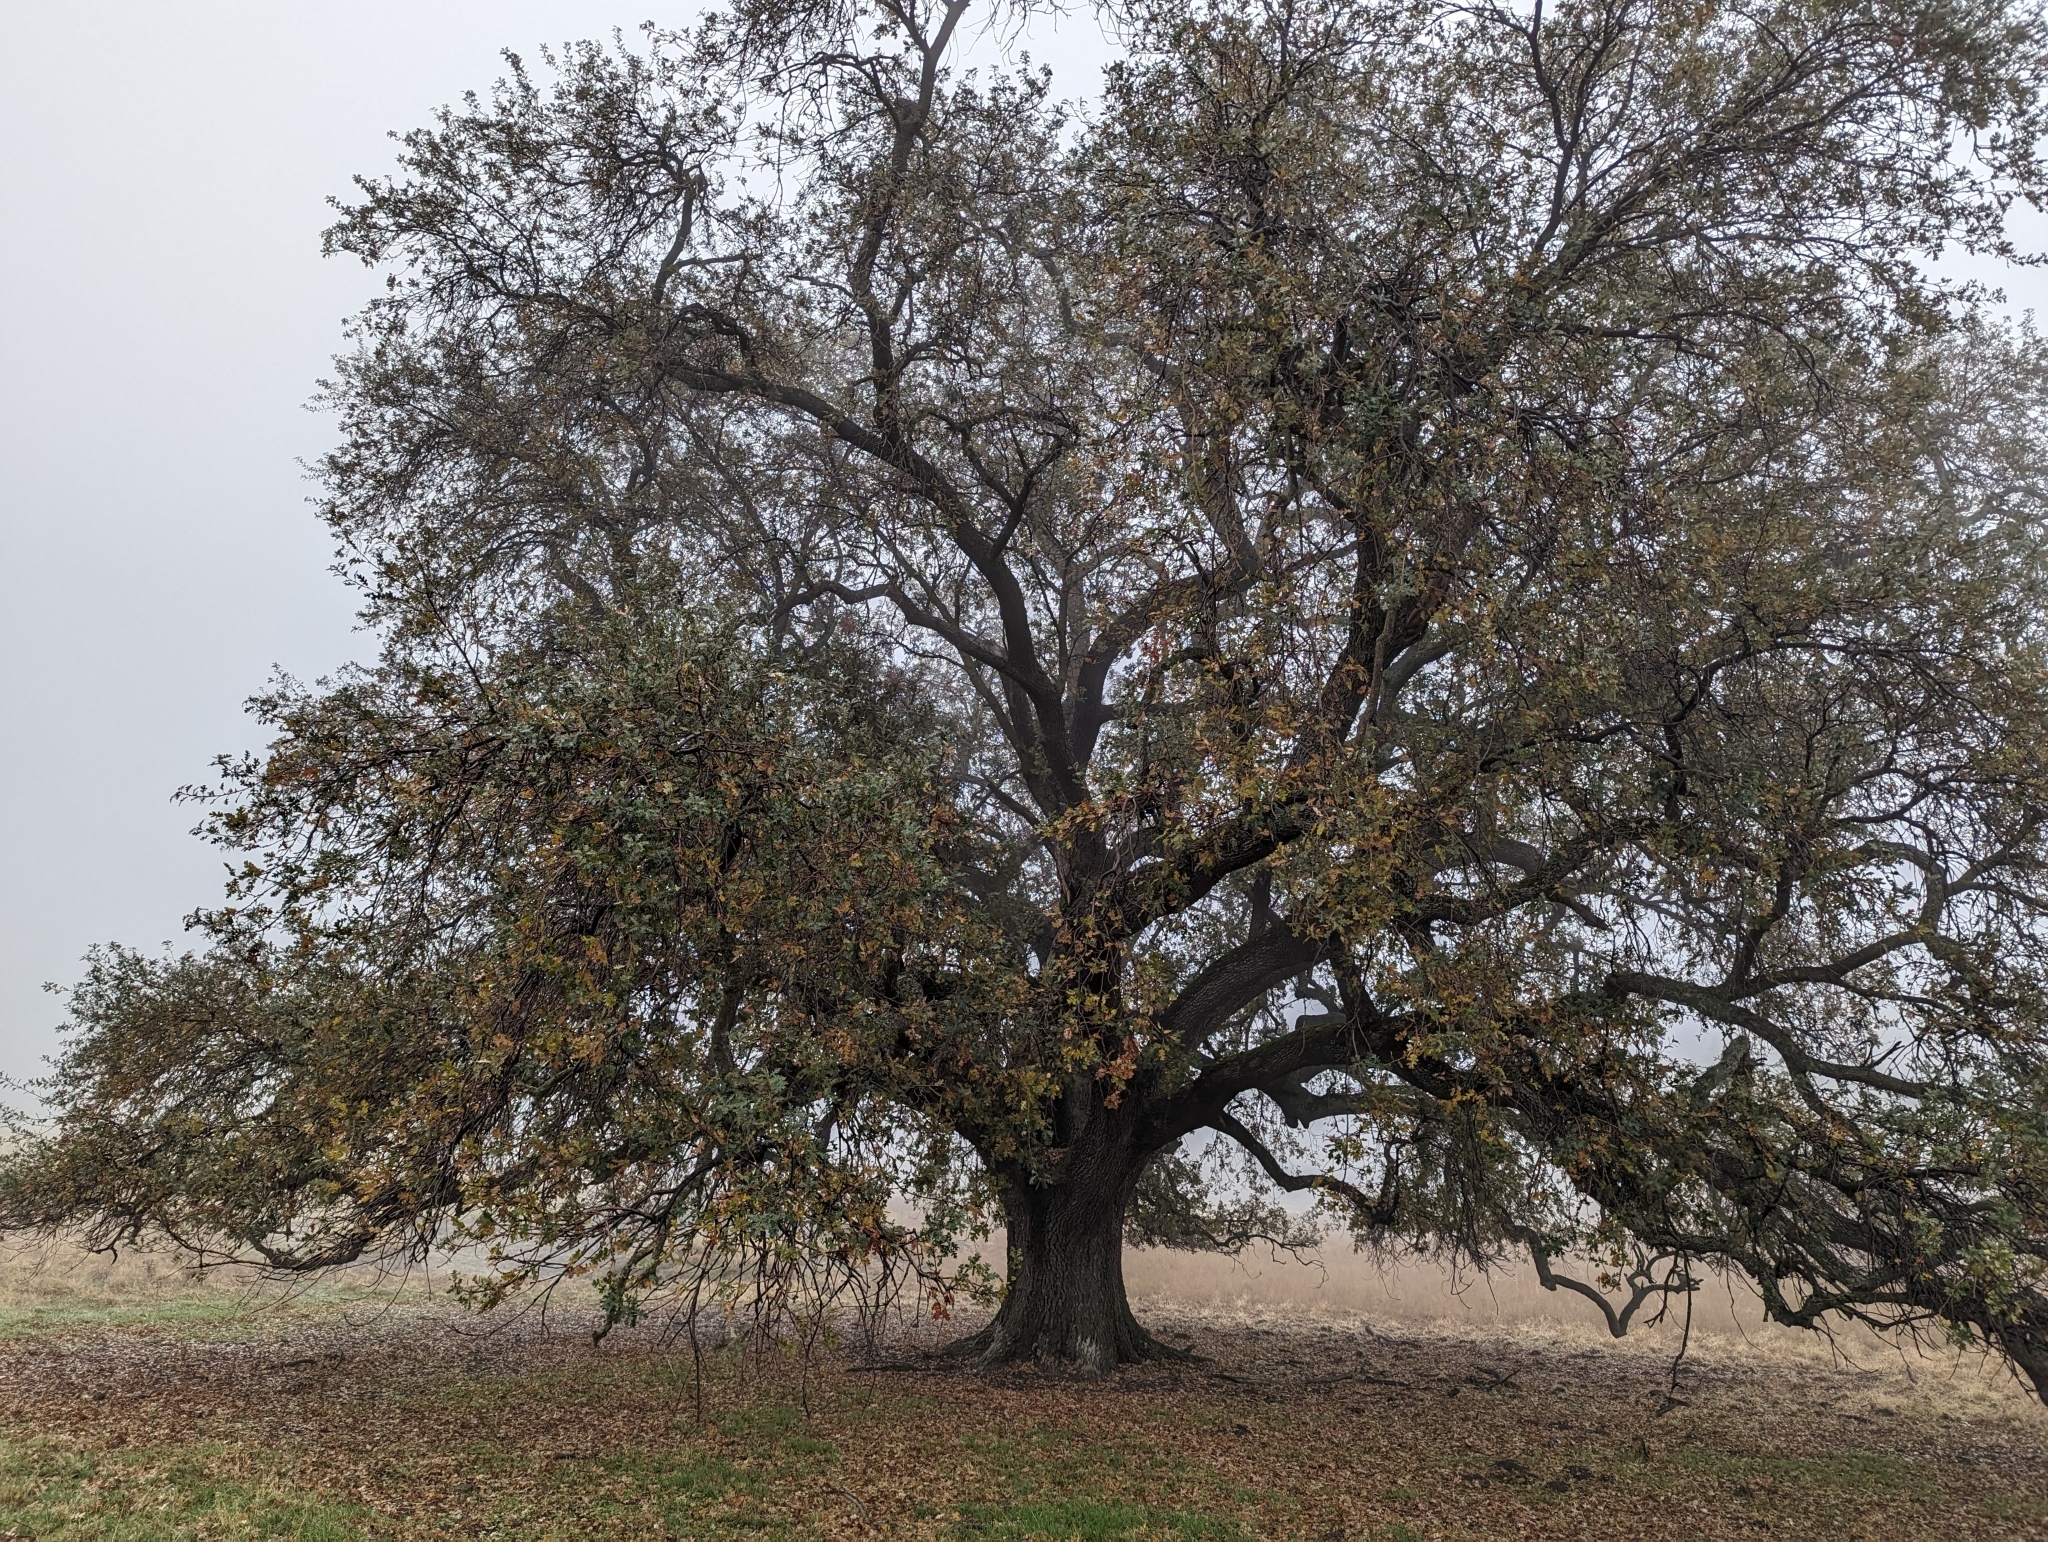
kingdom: Plantae
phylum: Tracheophyta
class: Magnoliopsida
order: Fagales
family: Fagaceae
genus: Quercus
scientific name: Quercus lobata
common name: Valley oak
